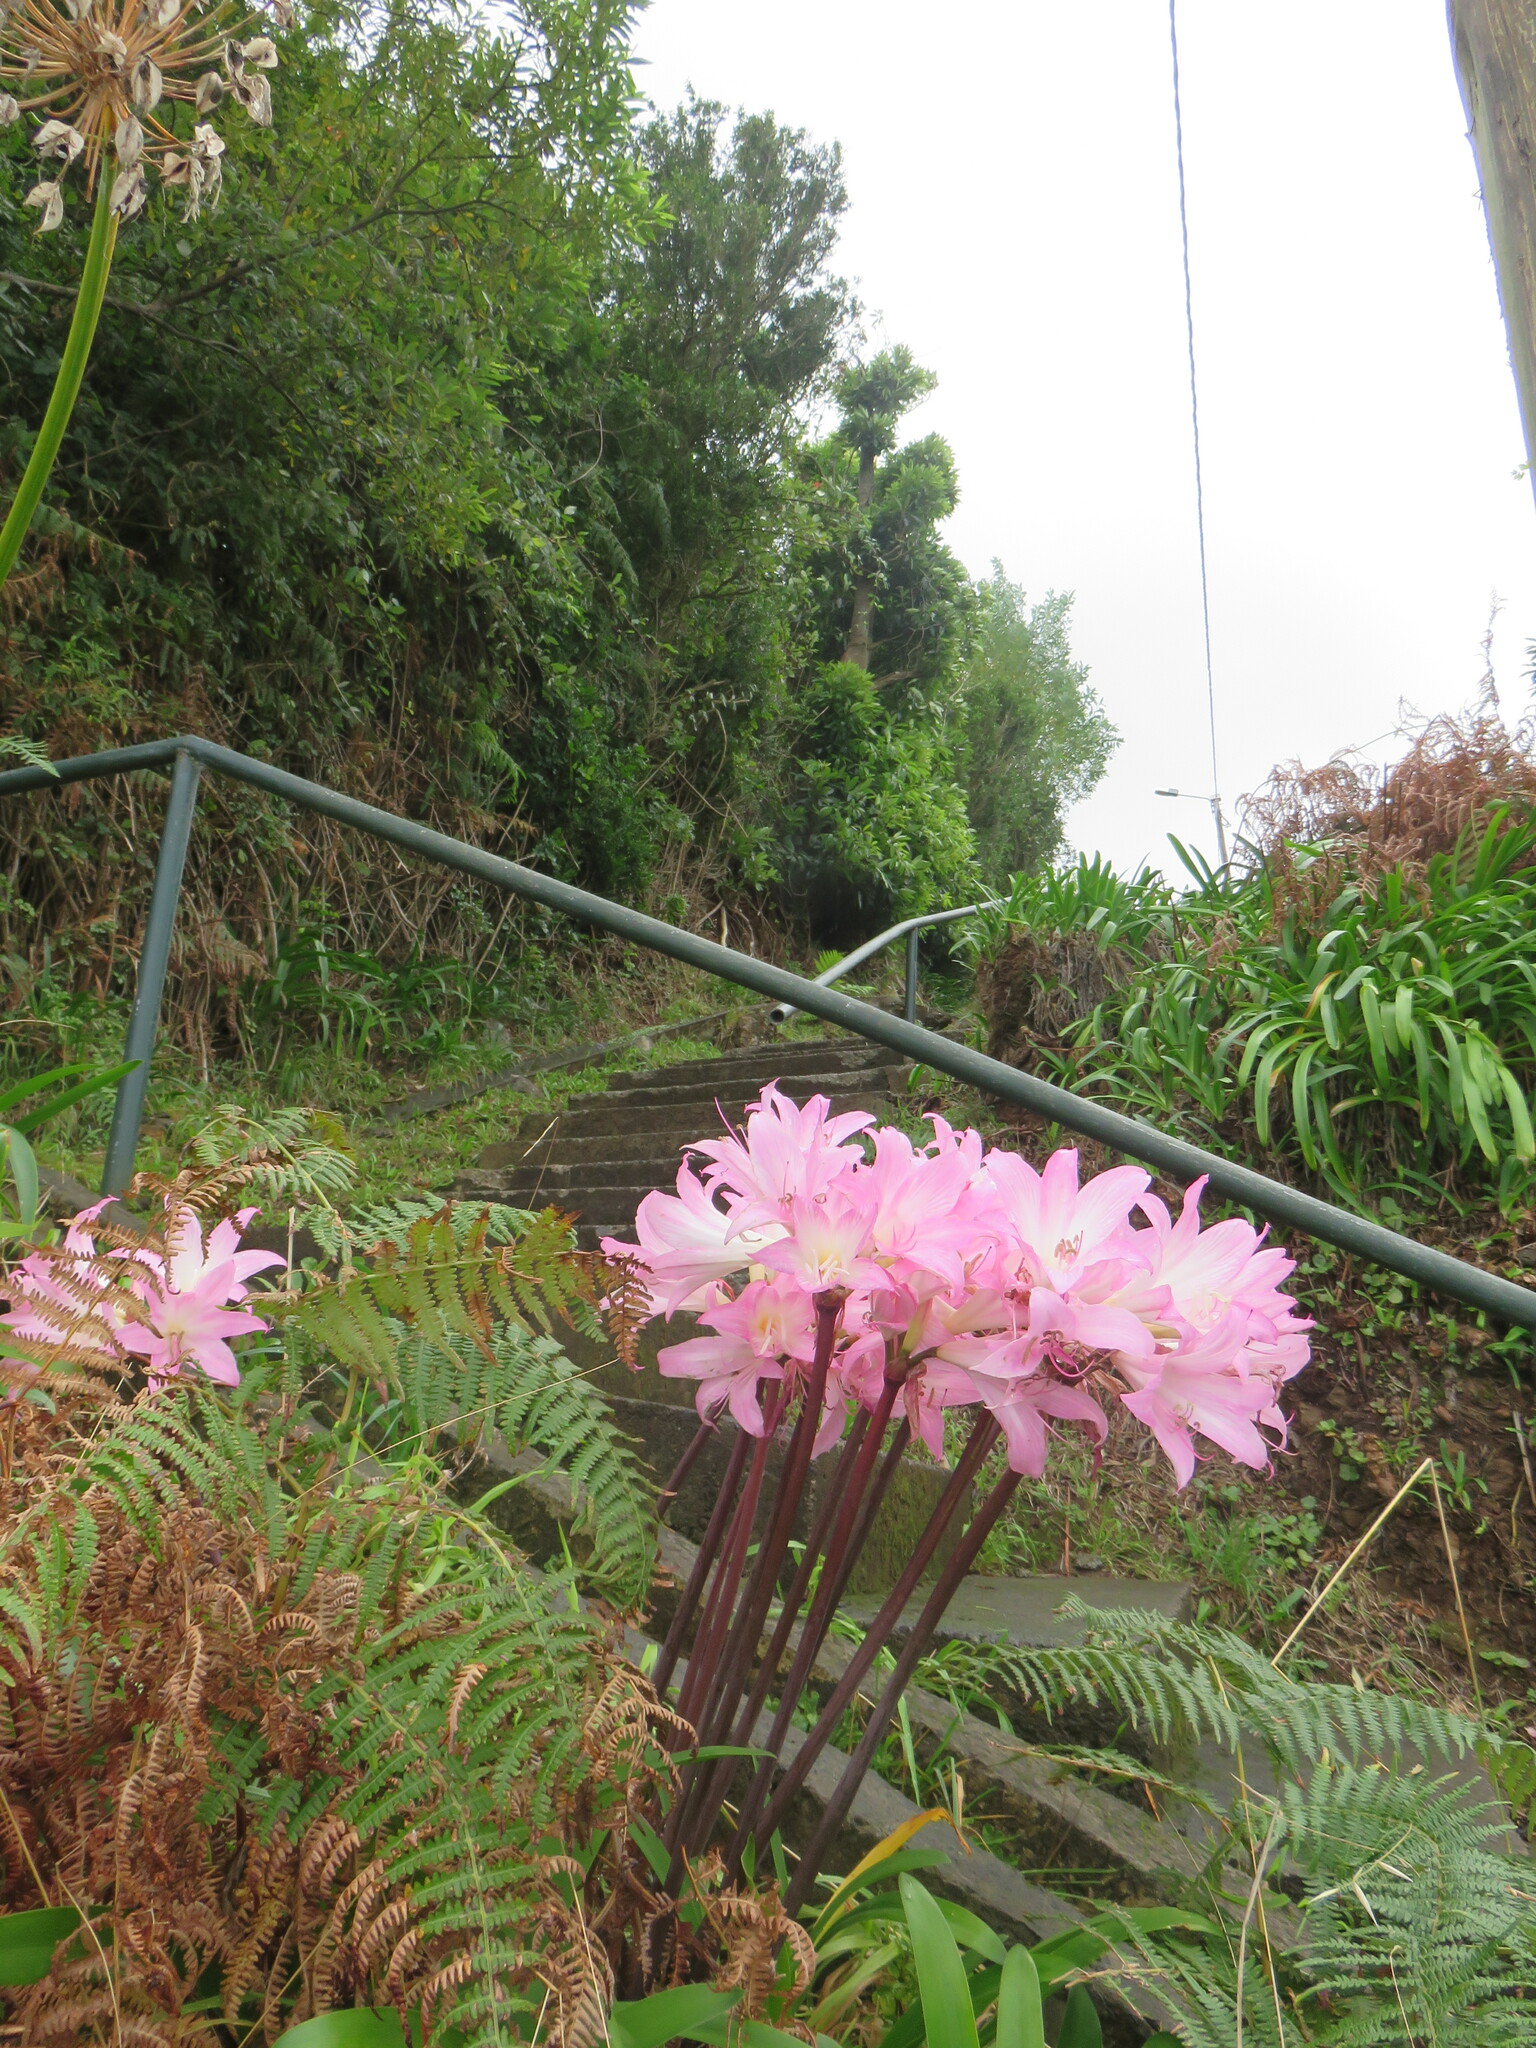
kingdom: Plantae
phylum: Tracheophyta
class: Liliopsida
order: Asparagales
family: Amaryllidaceae
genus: Amaryllis
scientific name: Amaryllis belladonna
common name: Jersey lily
